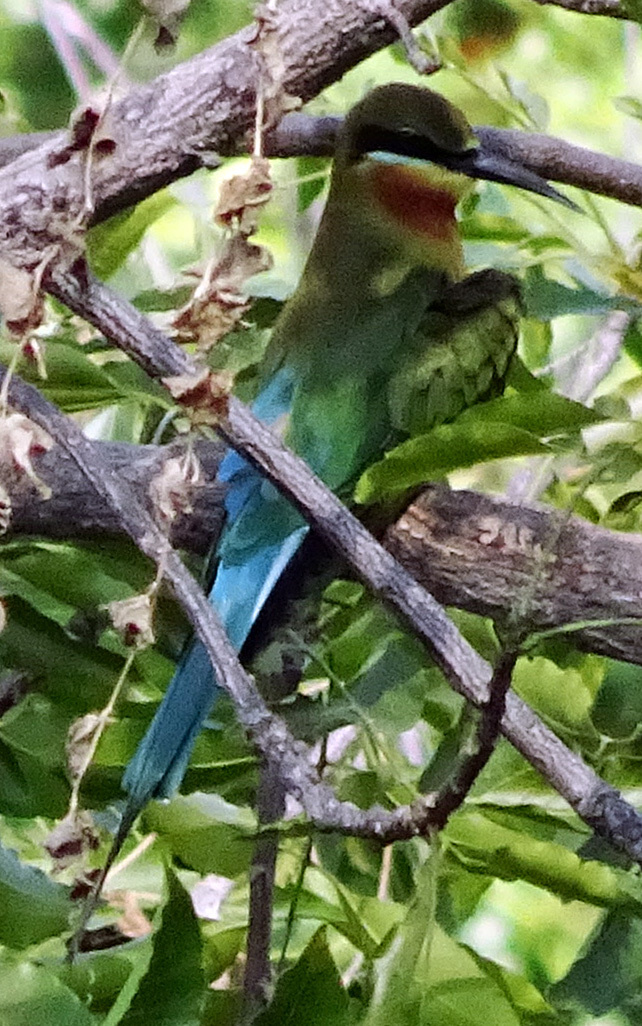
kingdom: Animalia
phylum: Chordata
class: Aves
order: Coraciiformes
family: Meropidae
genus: Merops
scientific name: Merops philippinus
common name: Blue-tailed bee-eater
